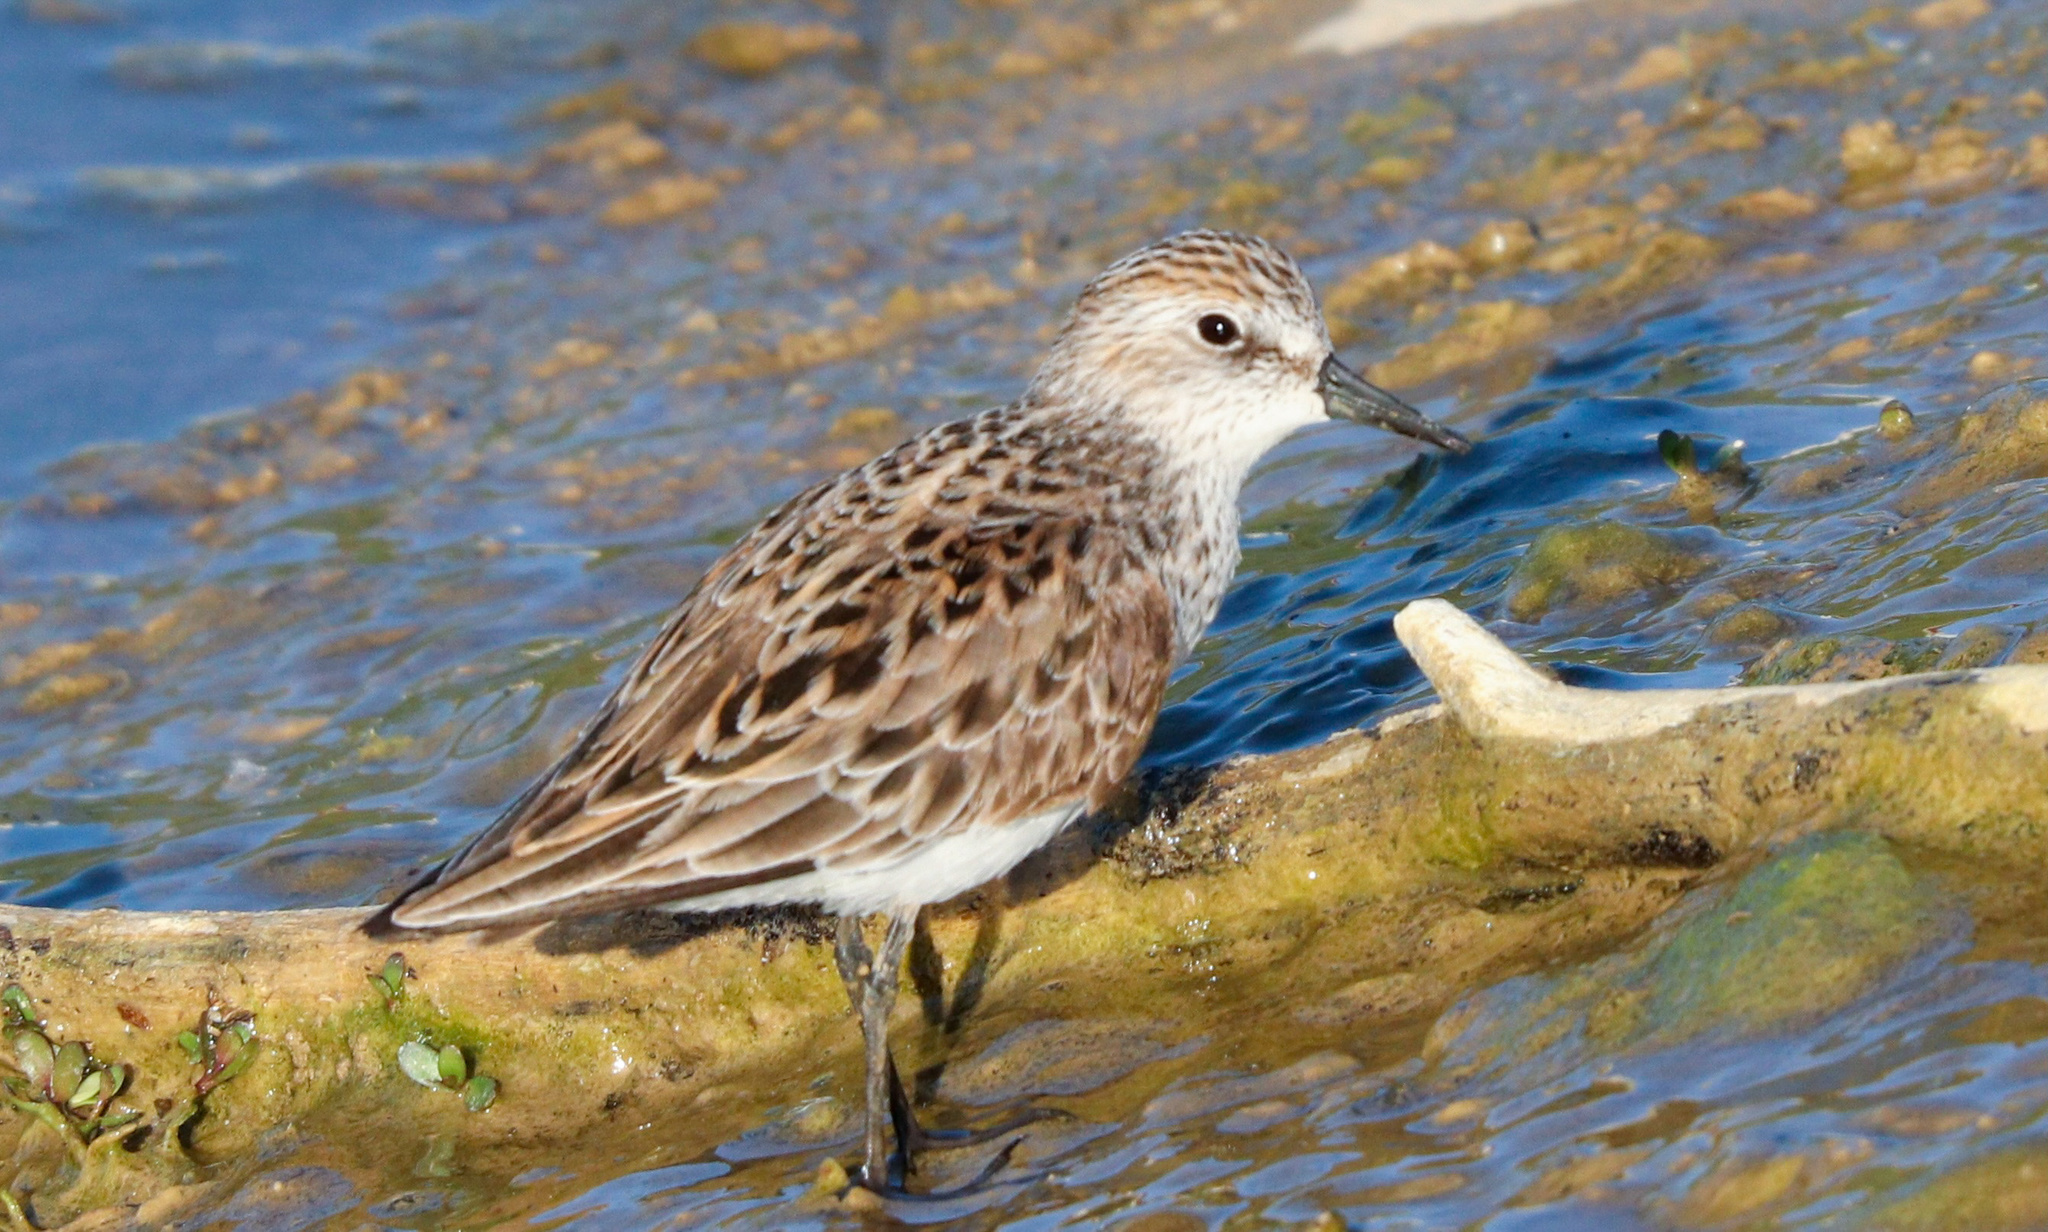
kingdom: Animalia
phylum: Chordata
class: Aves
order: Charadriiformes
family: Scolopacidae
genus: Calidris
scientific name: Calidris pusilla
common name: Semipalmated sandpiper
